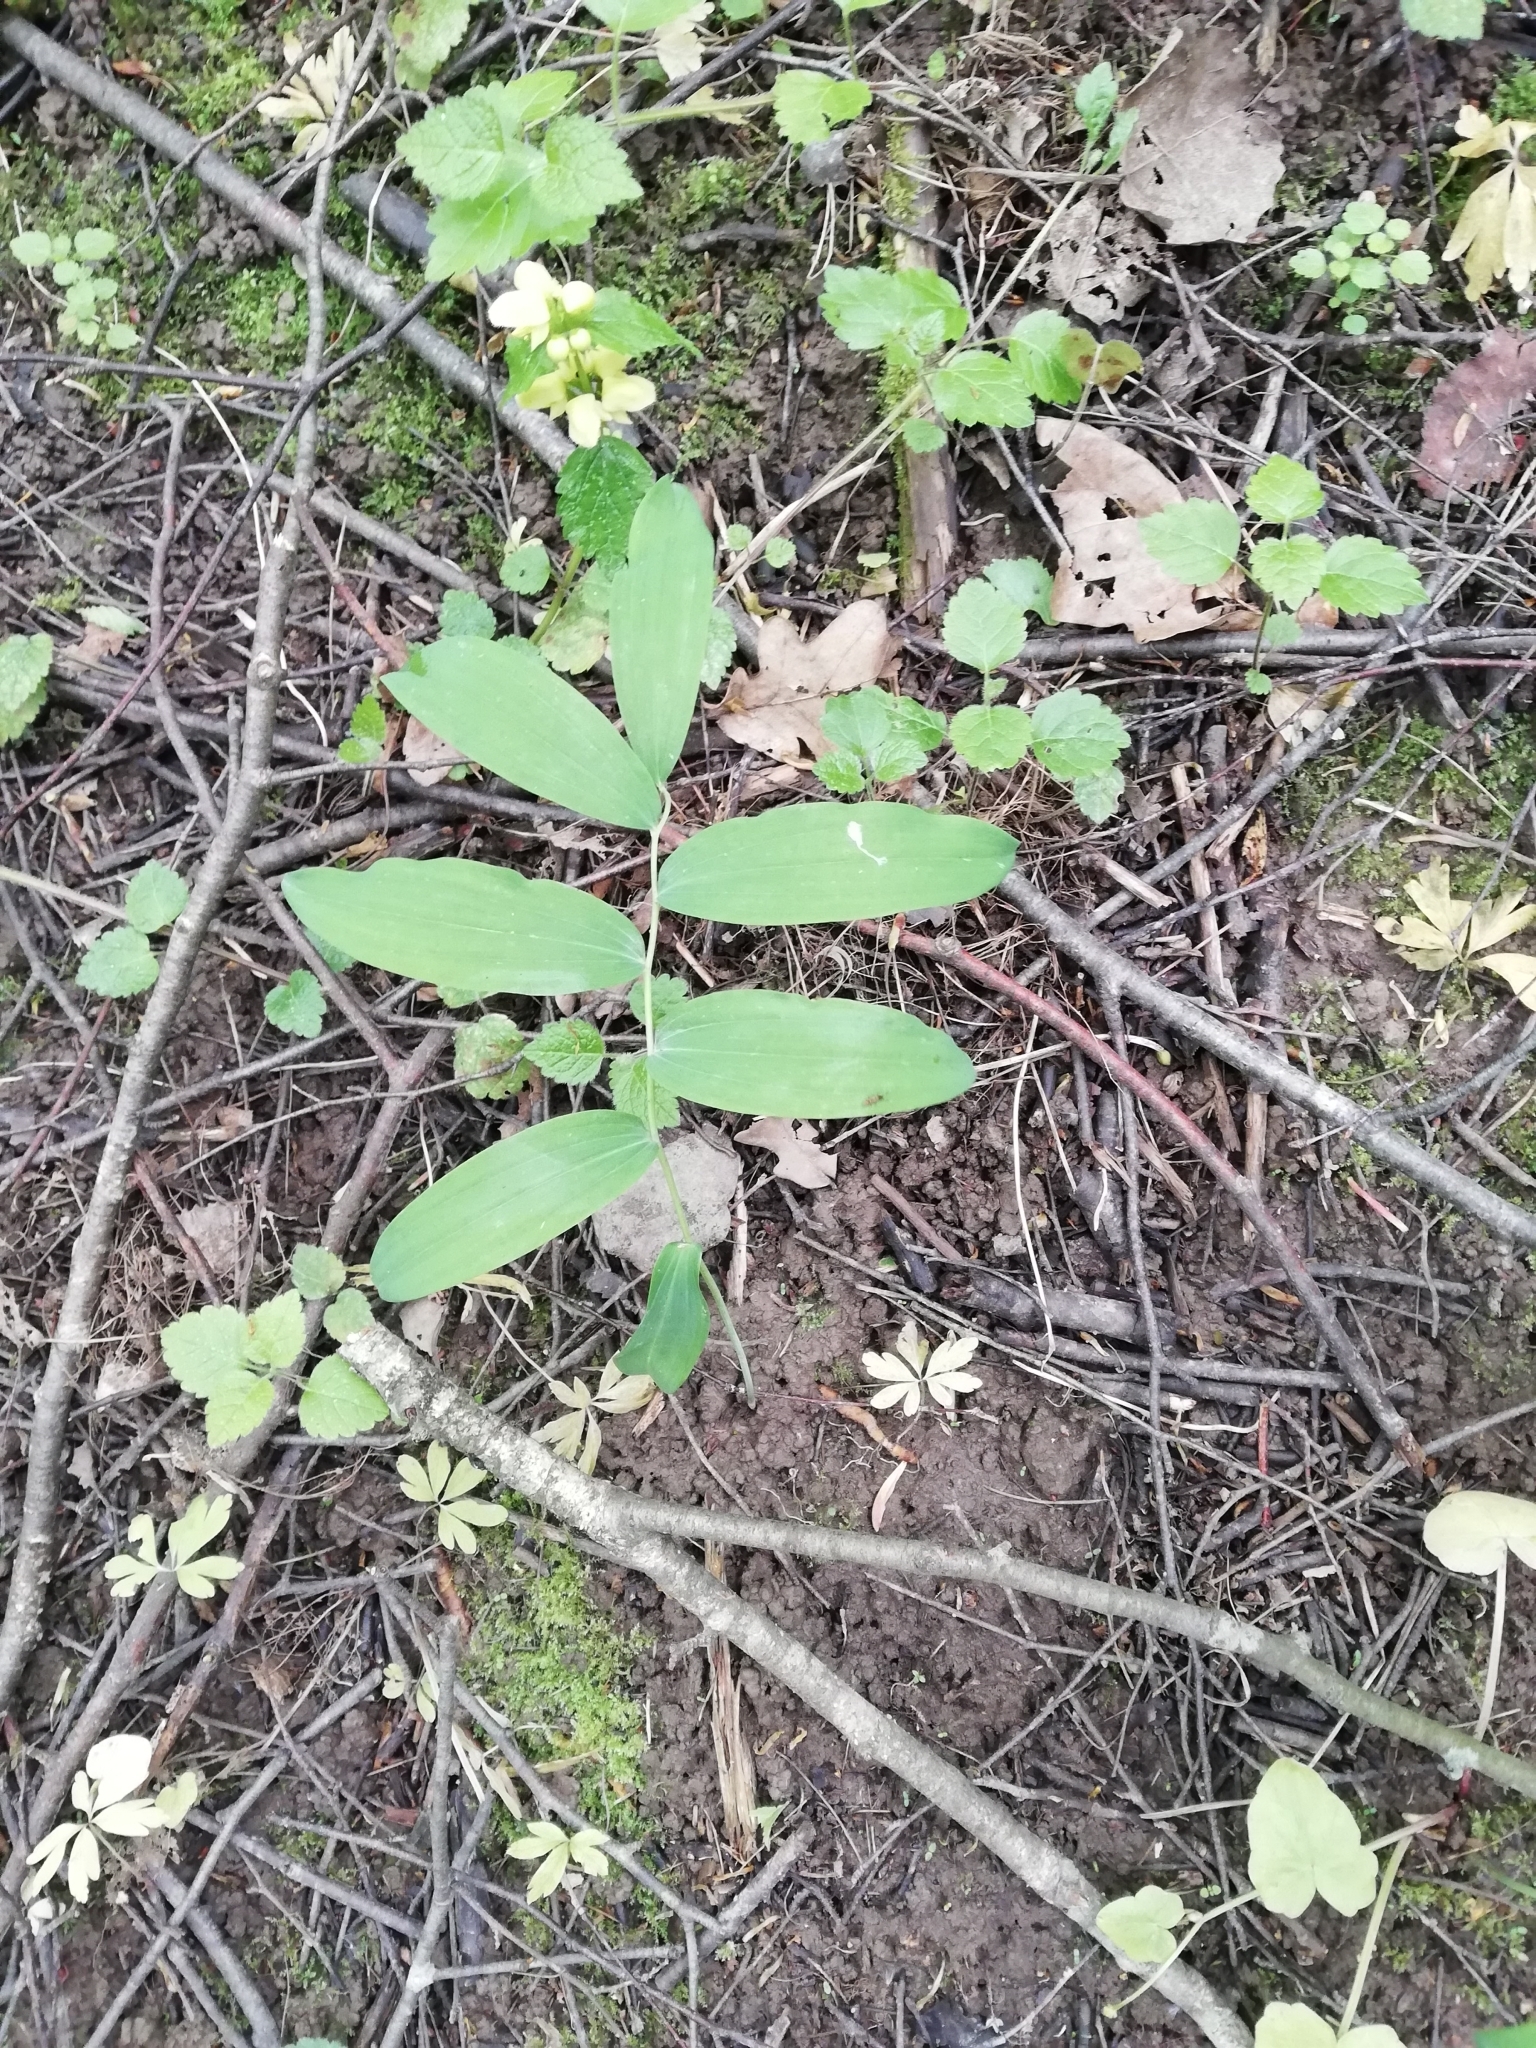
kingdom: Plantae
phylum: Tracheophyta
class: Liliopsida
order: Asparagales
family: Asparagaceae
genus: Polygonatum
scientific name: Polygonatum multiflorum
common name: Solomon's-seal
